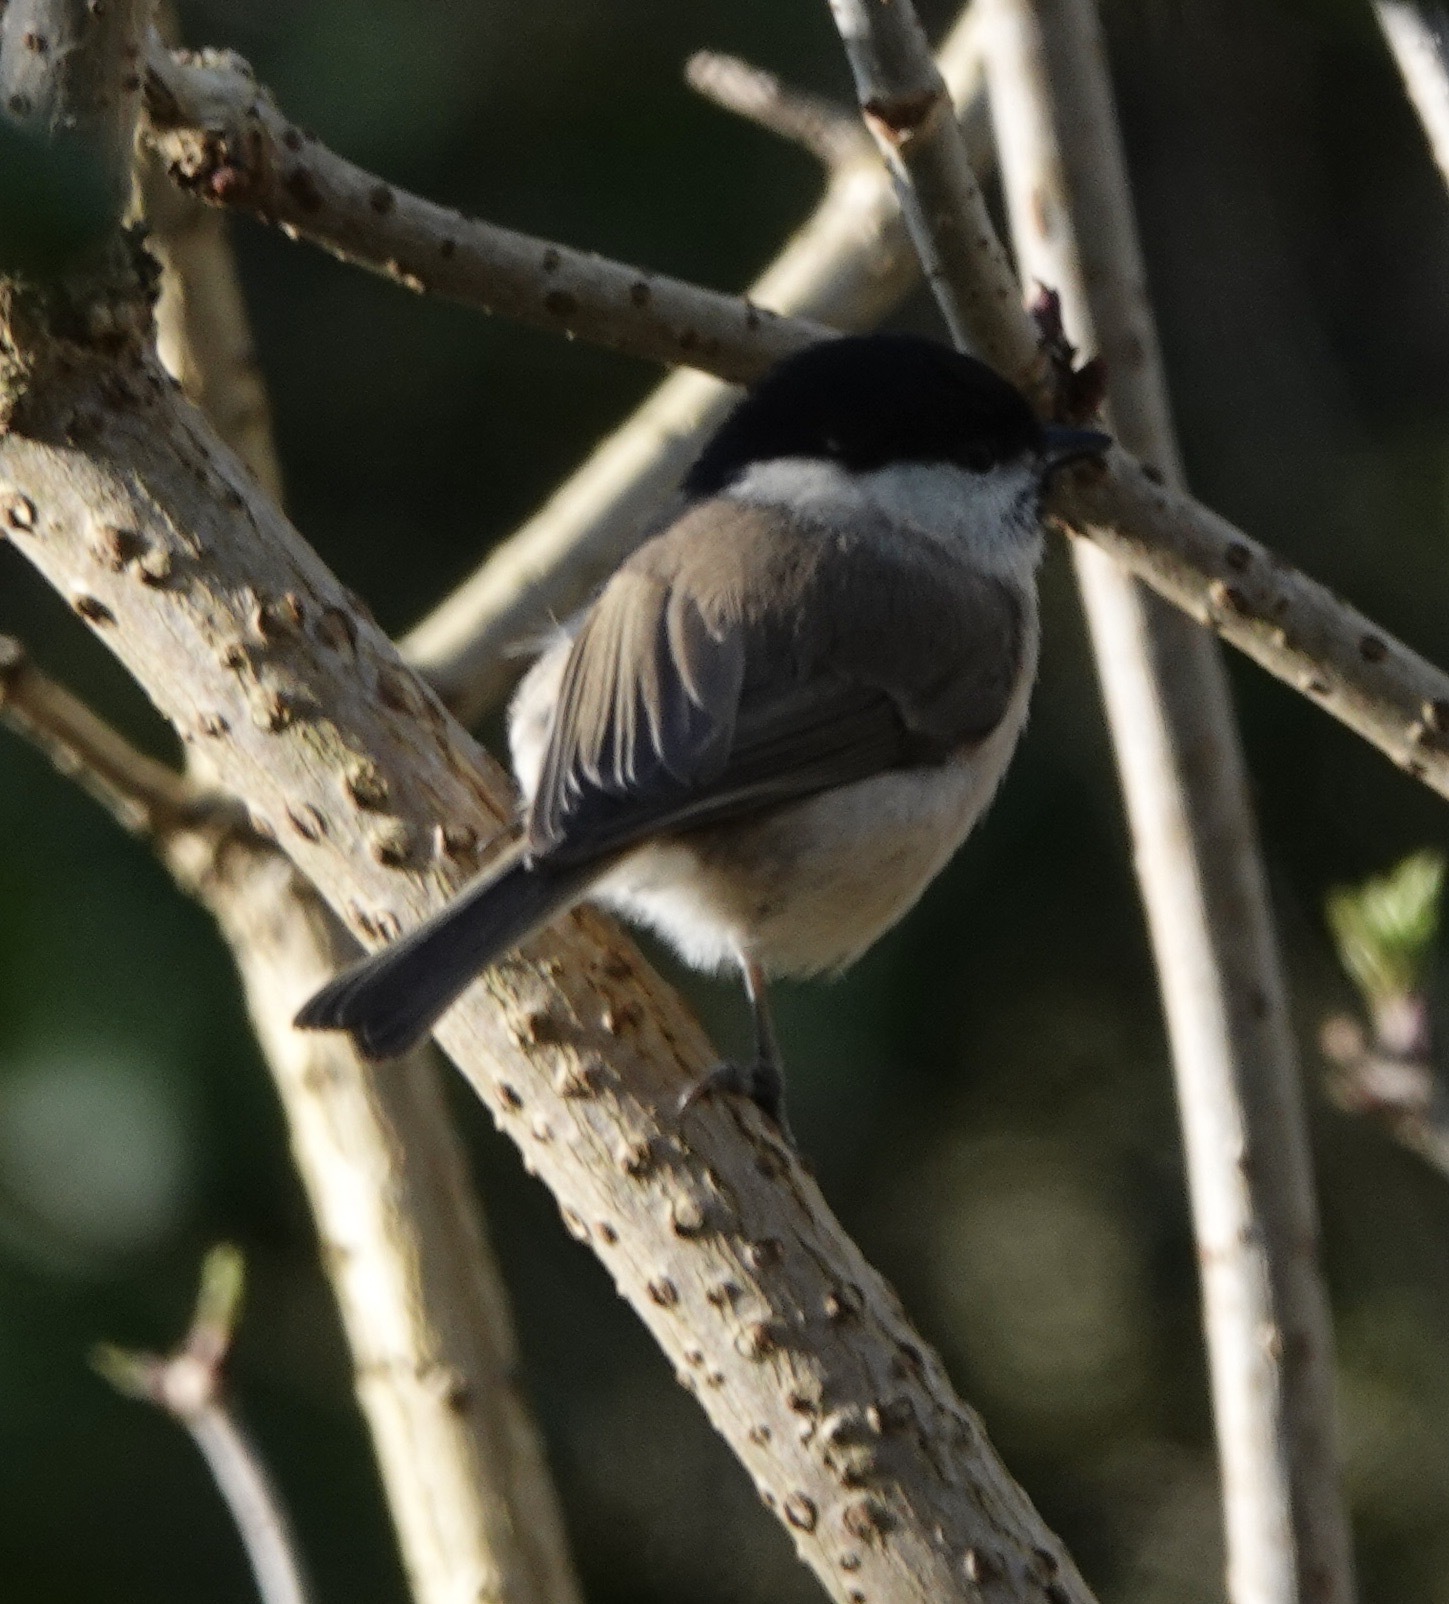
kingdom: Animalia
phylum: Chordata
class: Aves
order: Passeriformes
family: Paridae
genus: Poecile
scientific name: Poecile palustris
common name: Marsh tit
